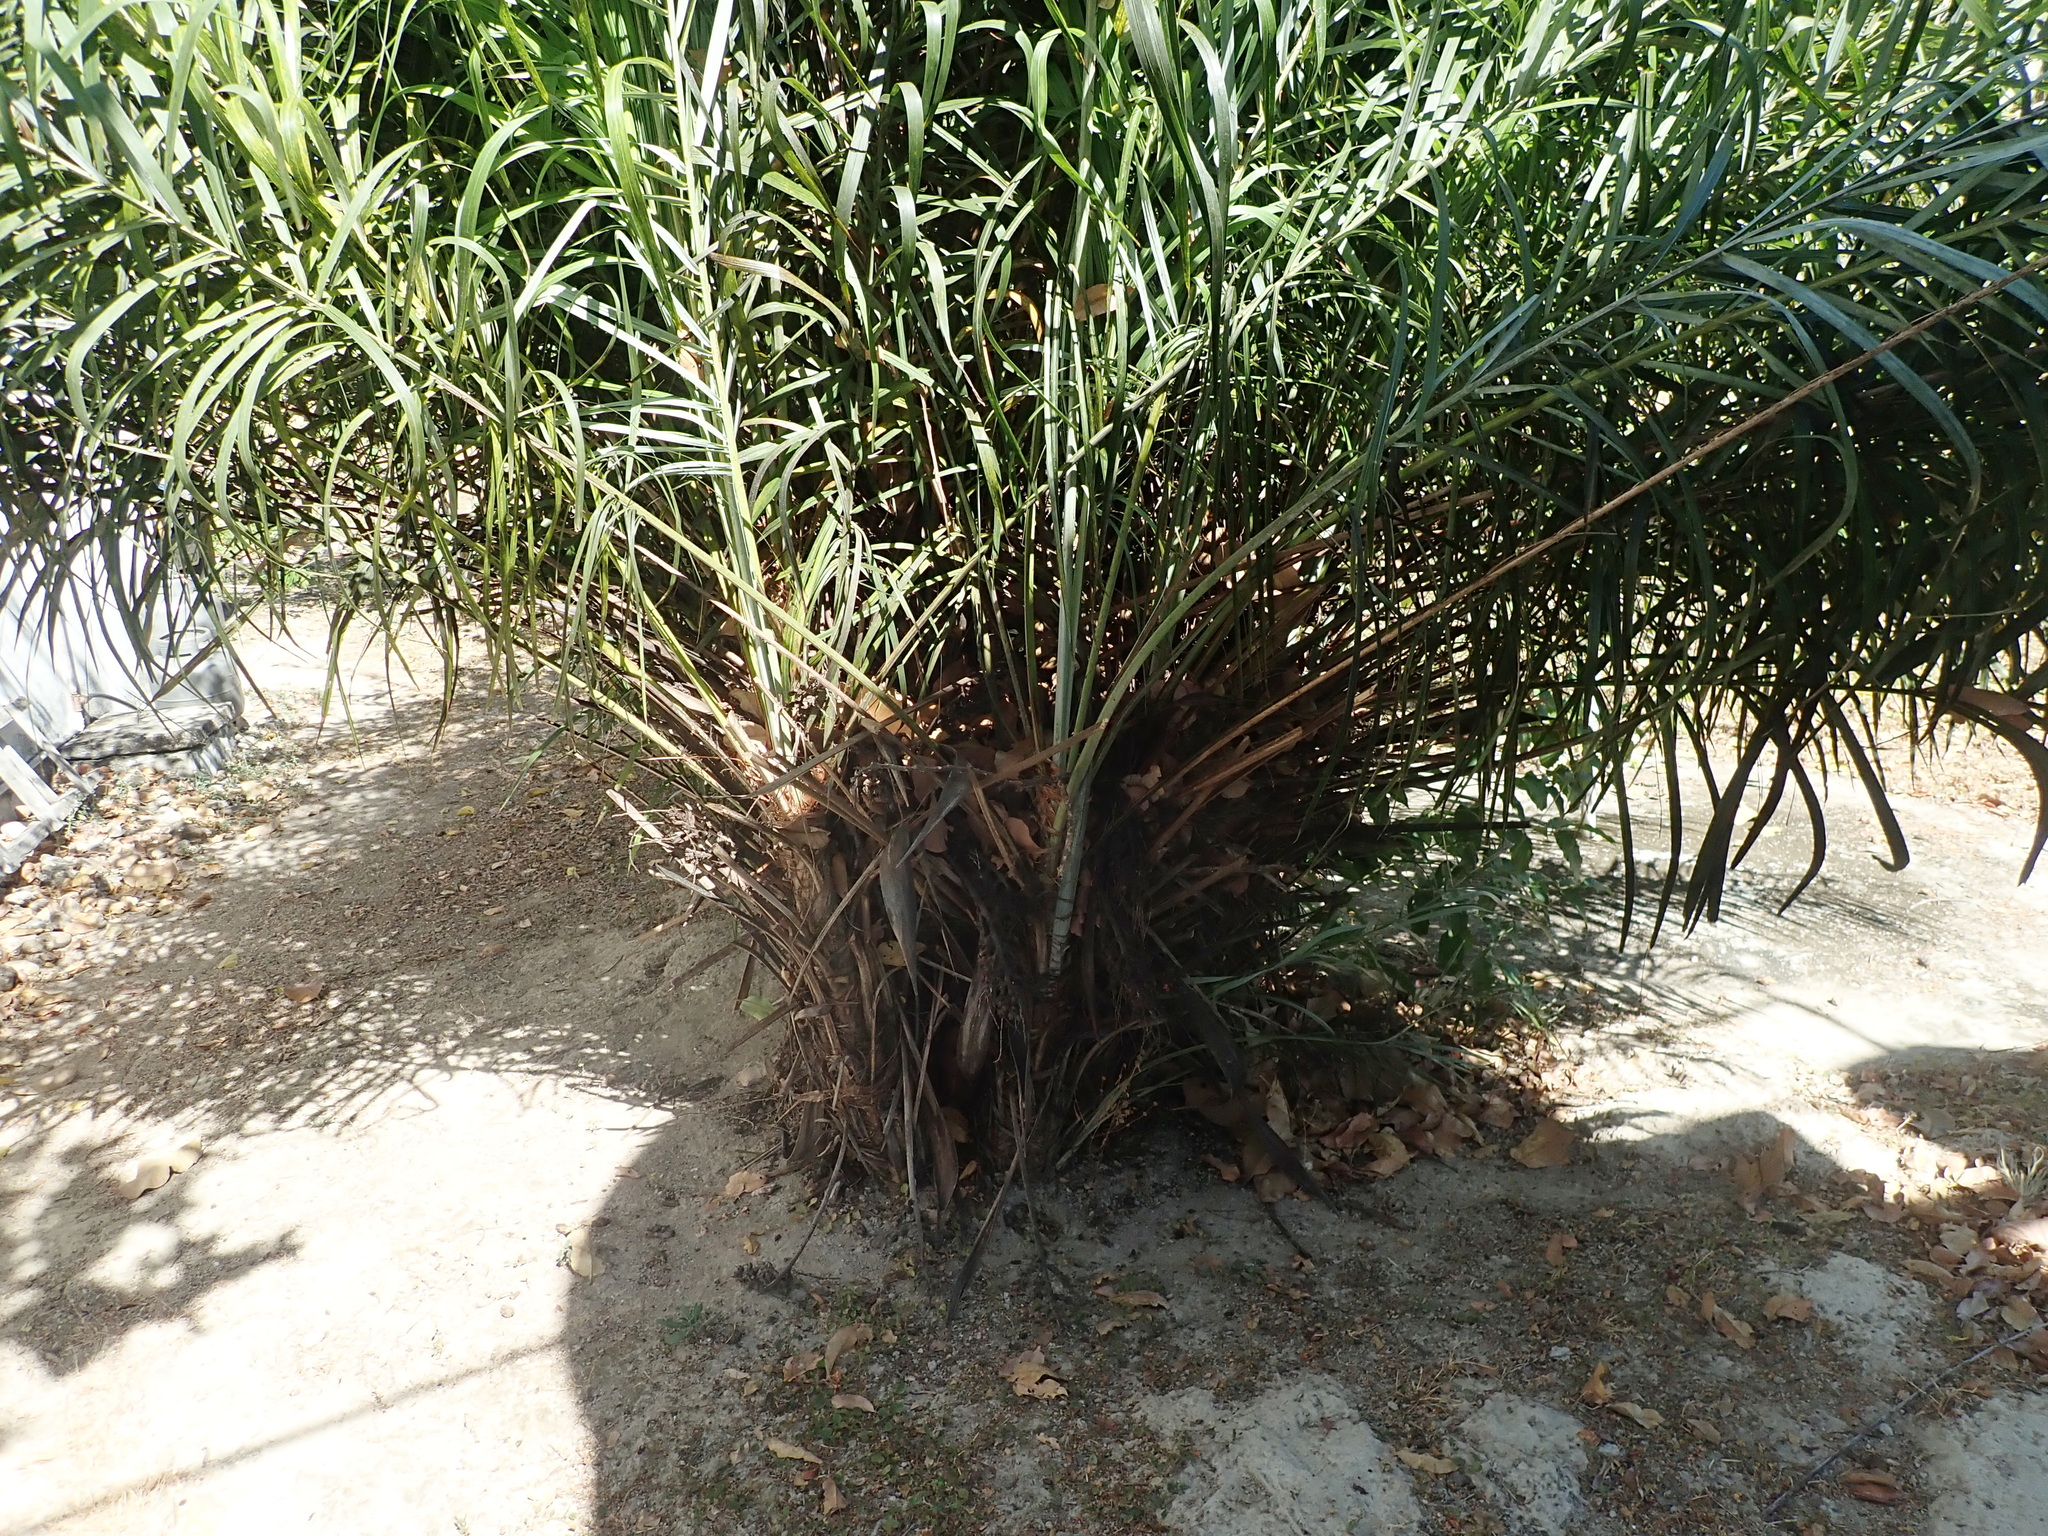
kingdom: Plantae
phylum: Tracheophyta
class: Liliopsida
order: Arecales
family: Arecaceae
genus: Syagrus
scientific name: Syagrus flexuosa
